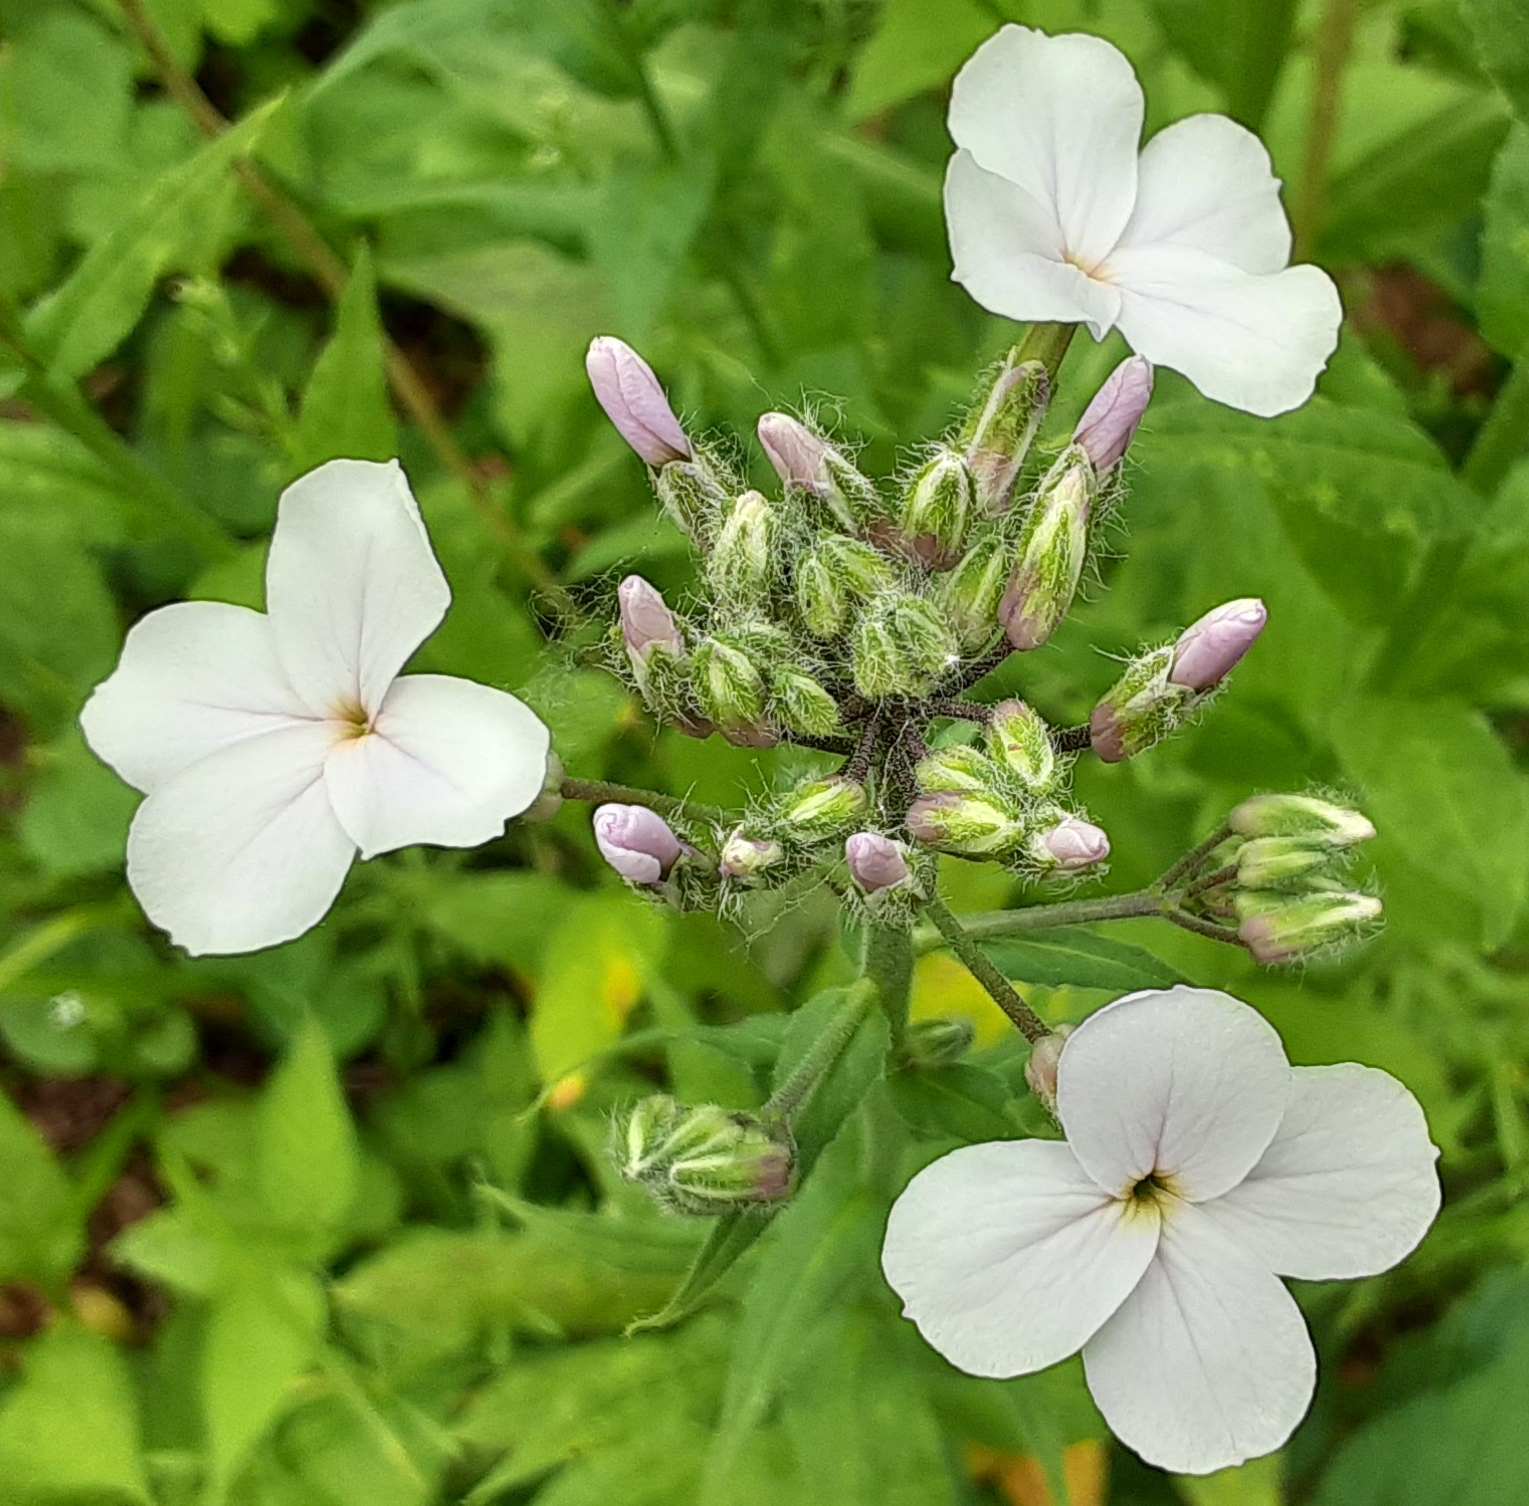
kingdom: Plantae
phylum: Tracheophyta
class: Magnoliopsida
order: Brassicales
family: Brassicaceae
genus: Hesperis
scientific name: Hesperis matronalis
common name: Dame's-violet
